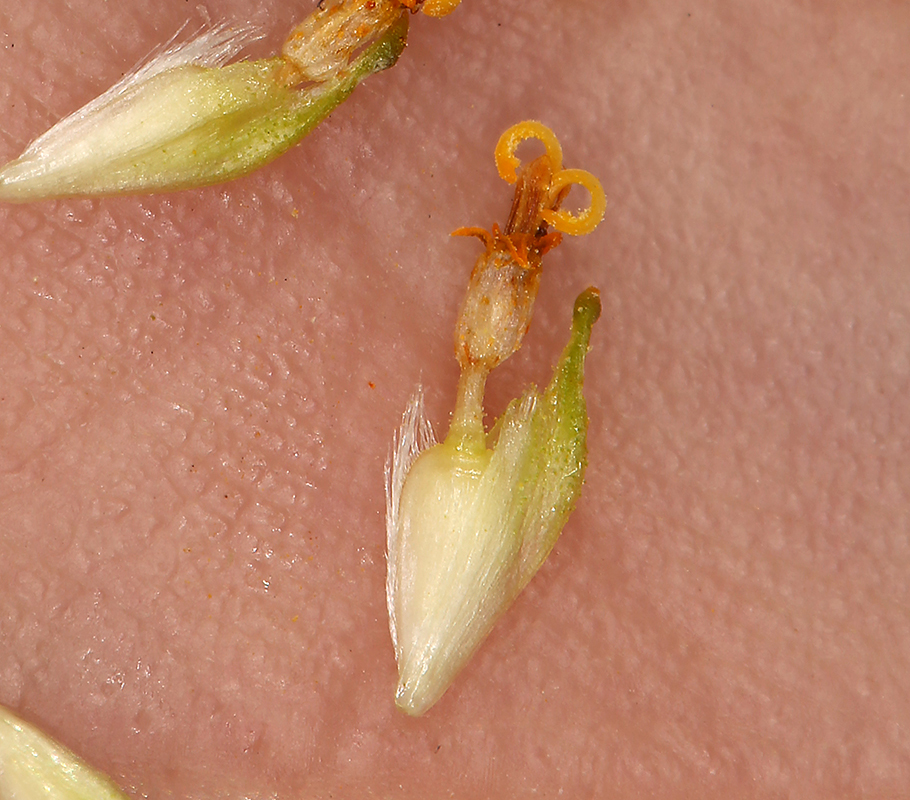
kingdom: Plantae
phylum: Tracheophyta
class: Magnoliopsida
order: Asterales
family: Asteraceae
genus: Encelia
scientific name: Encelia farinosa
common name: Brittlebush
